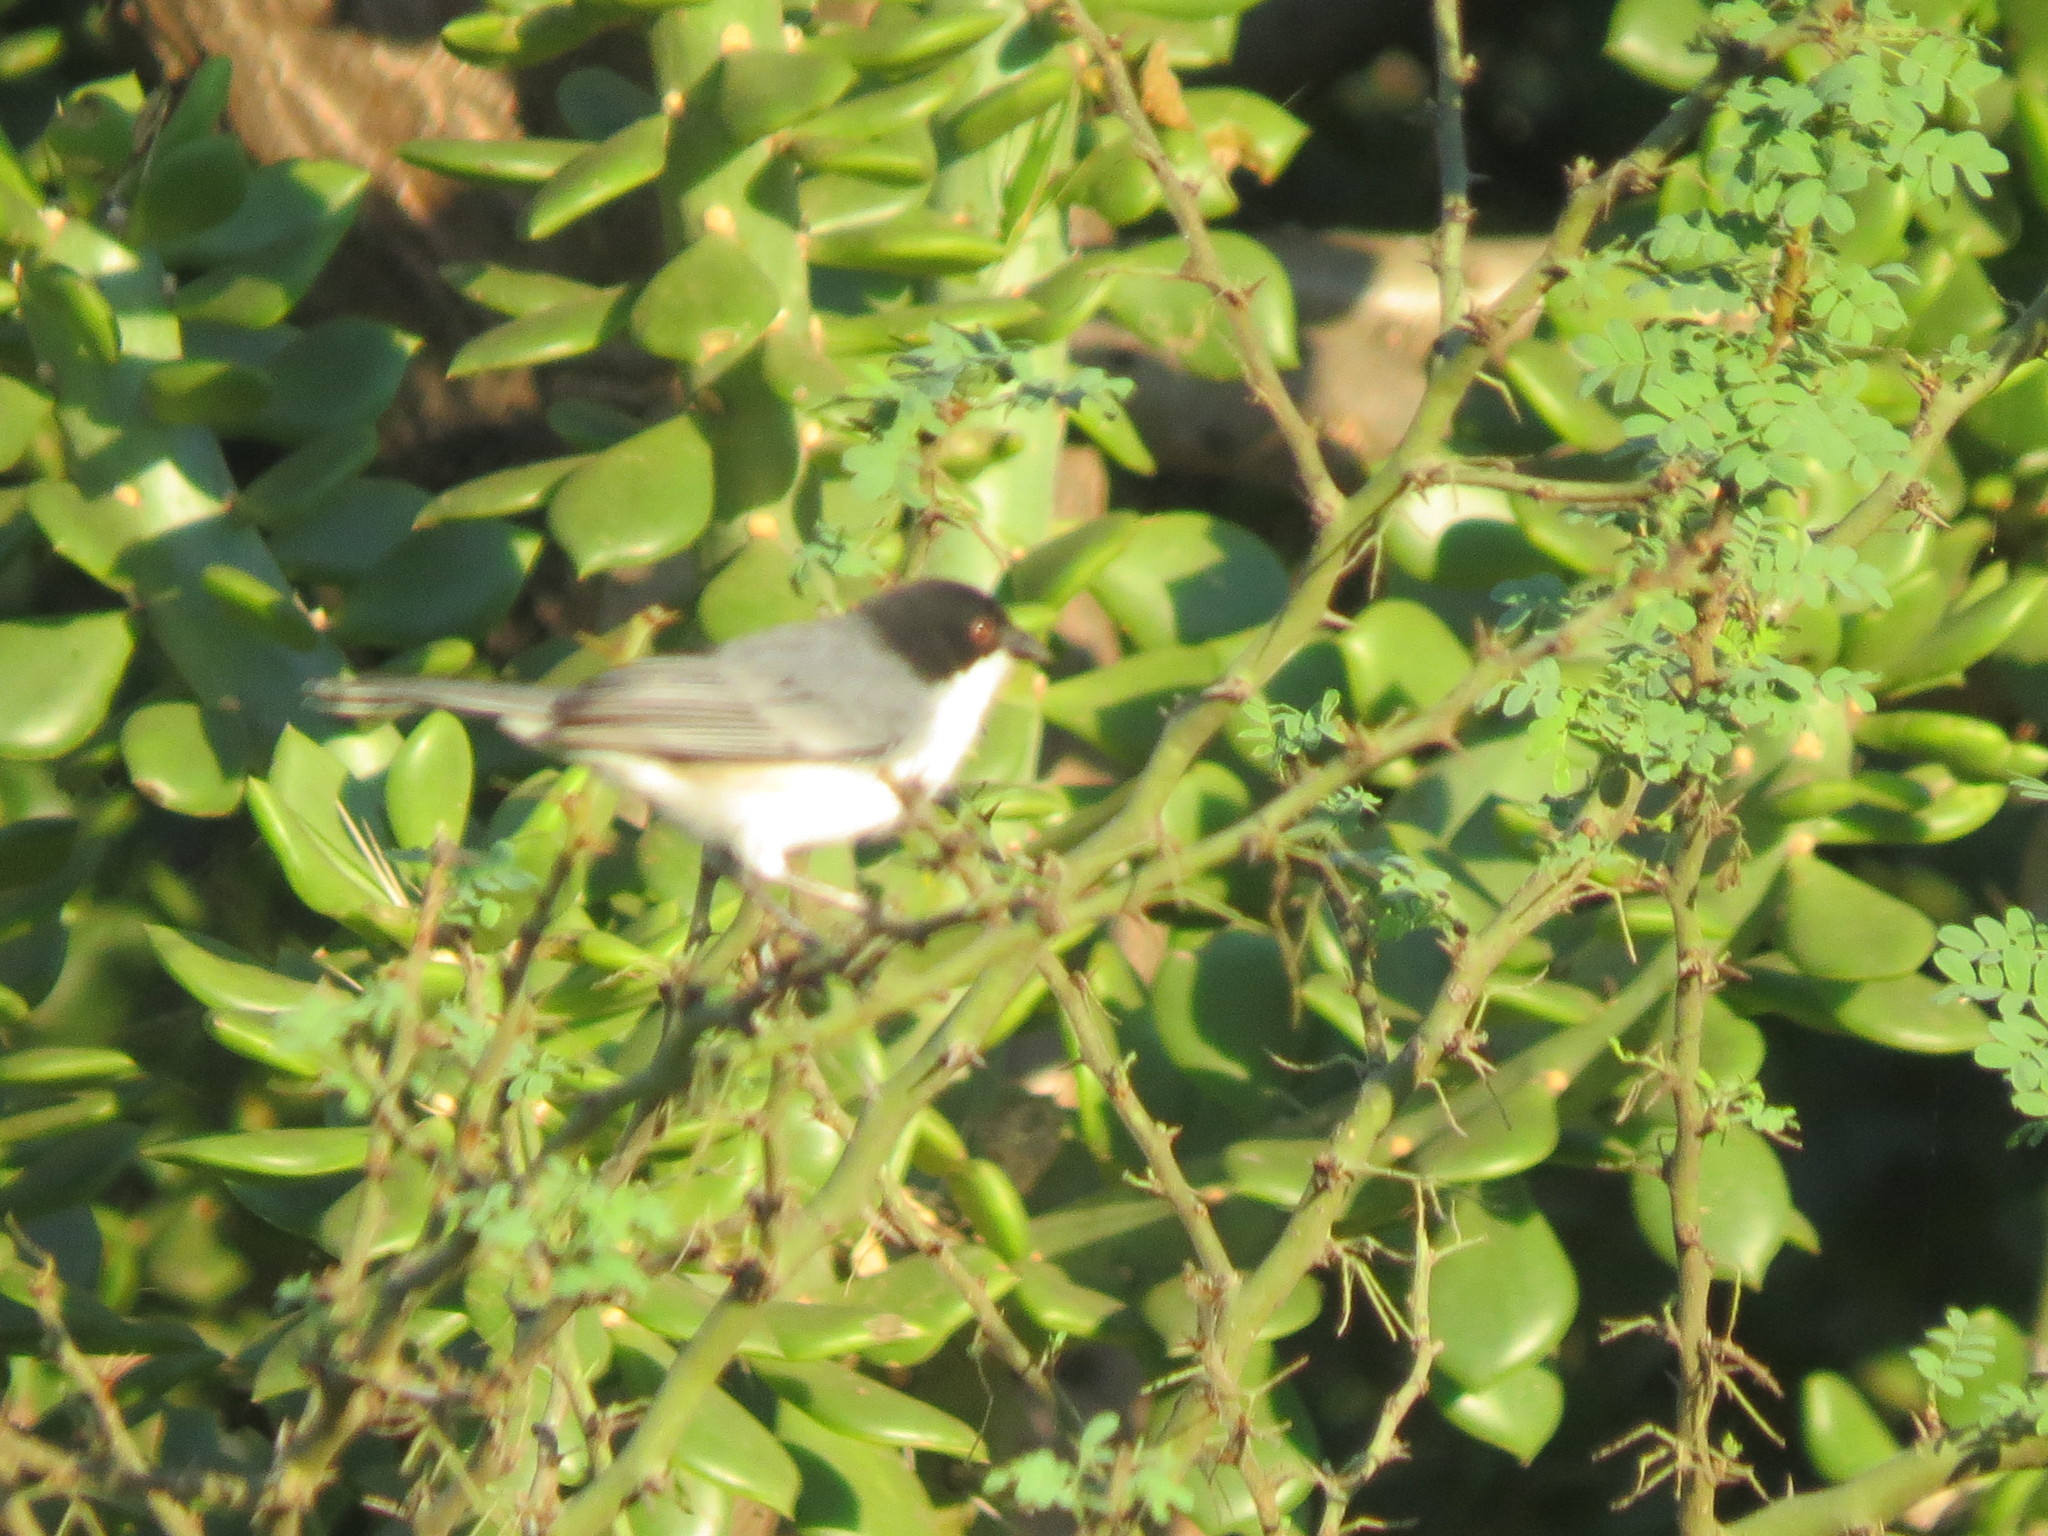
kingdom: Animalia
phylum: Chordata
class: Aves
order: Passeriformes
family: Thraupidae
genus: Microspingus
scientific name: Microspingus melanoleucus
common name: Black-capped warbling-finch
